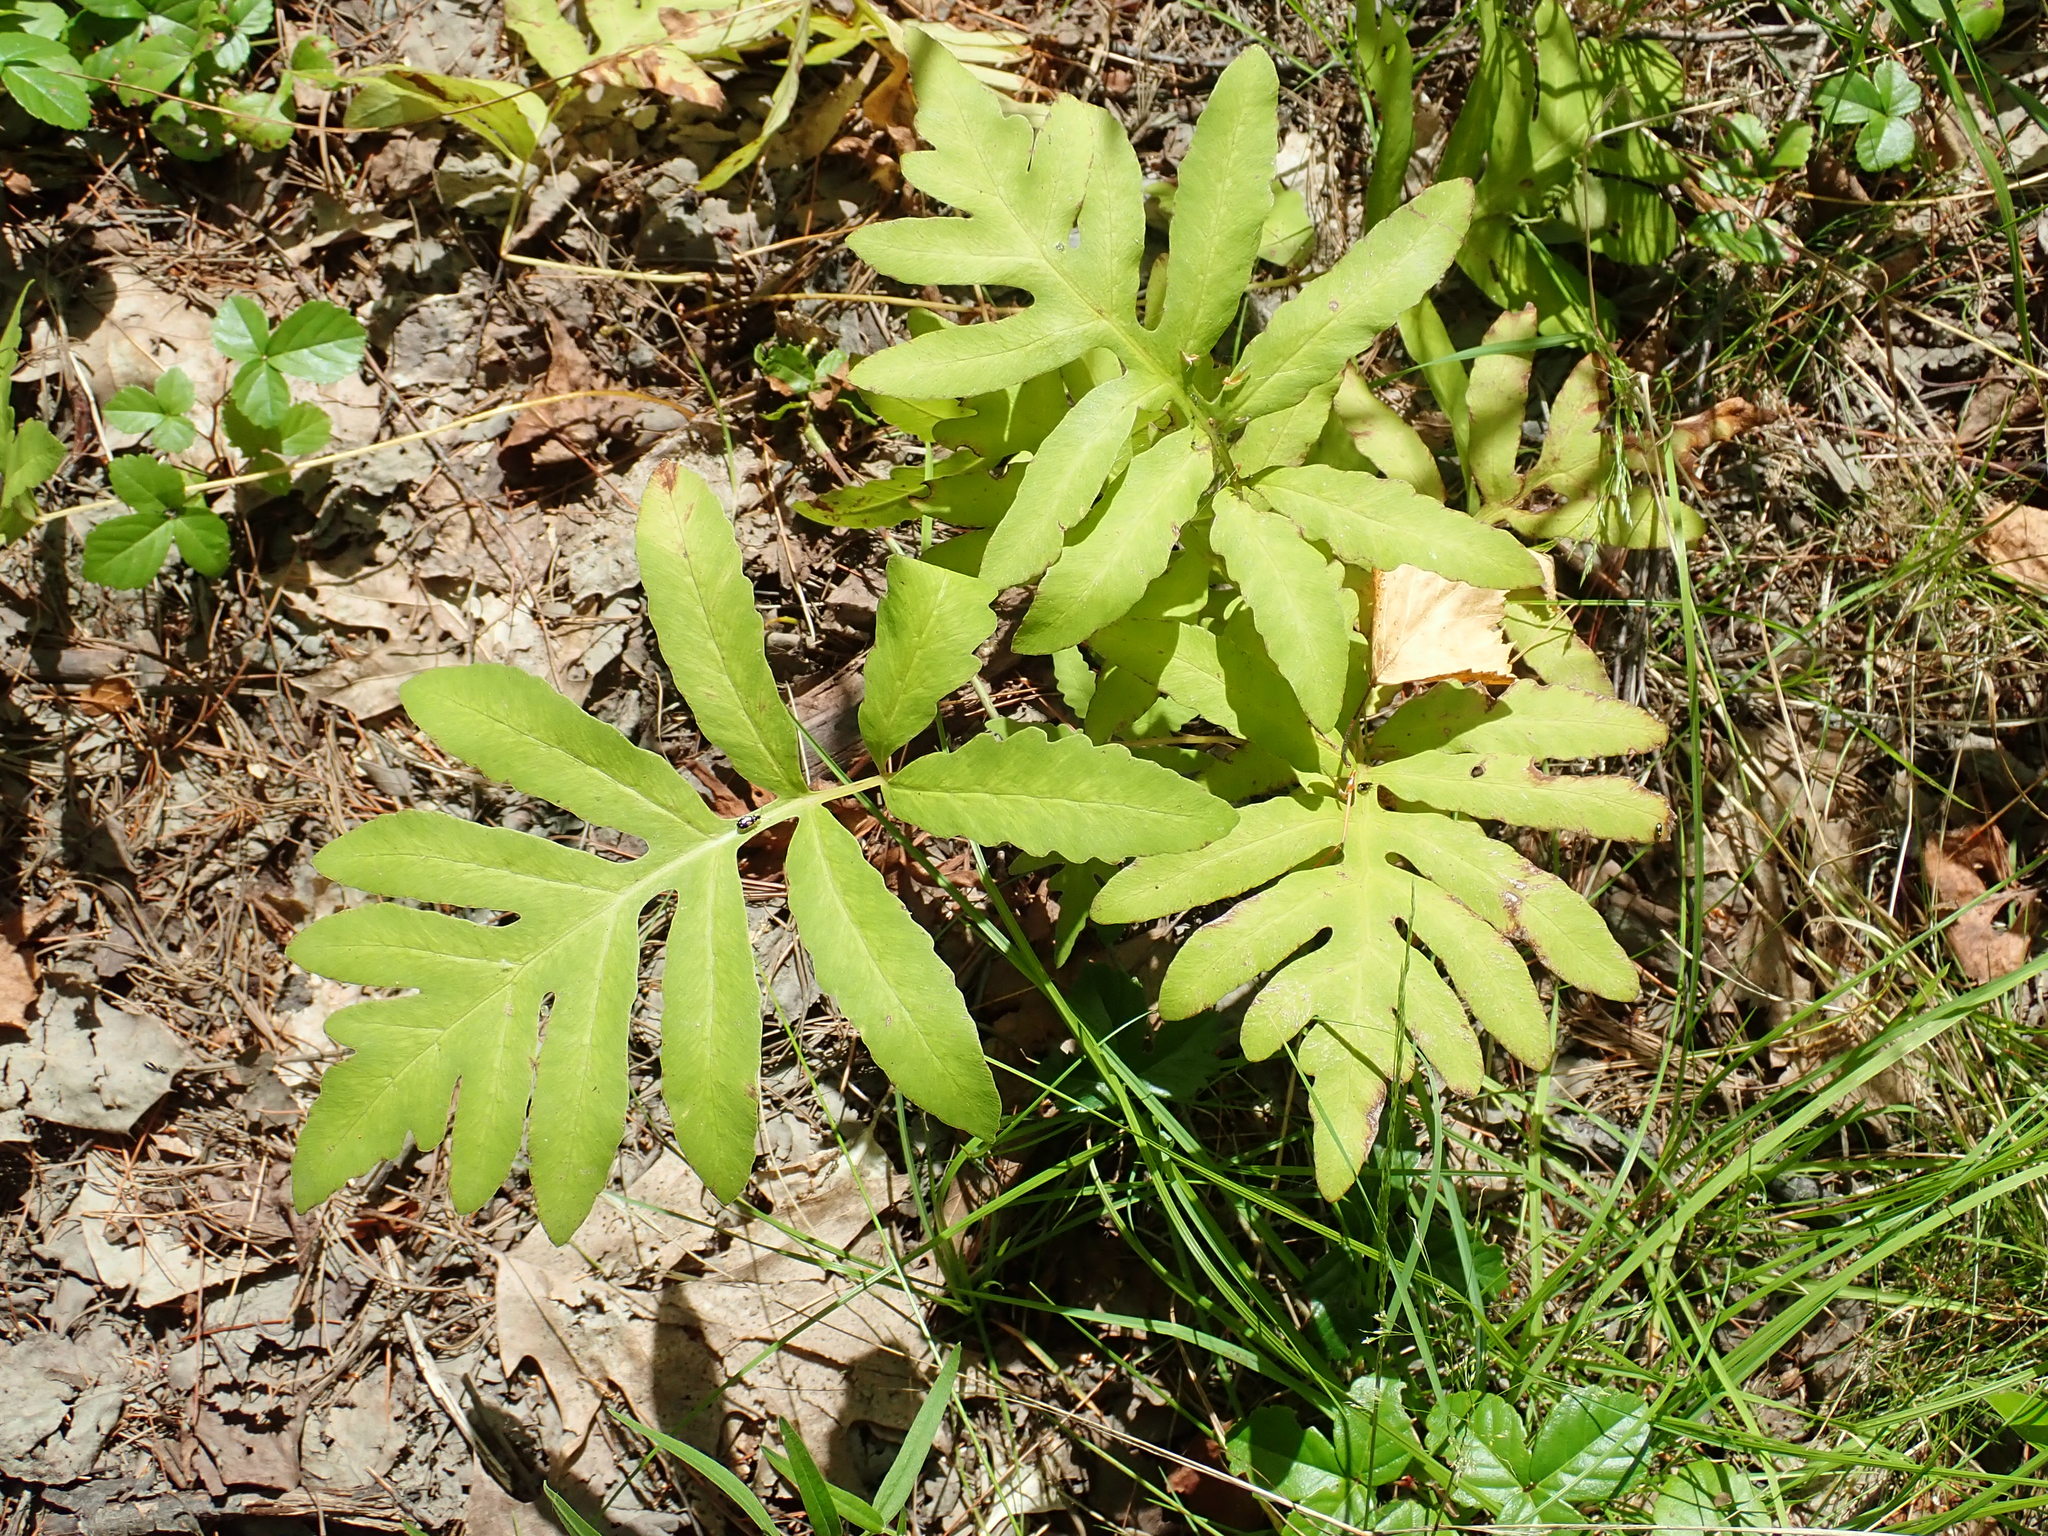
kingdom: Plantae
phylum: Tracheophyta
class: Polypodiopsida
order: Polypodiales
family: Onocleaceae
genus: Onoclea
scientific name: Onoclea sensibilis
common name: Sensitive fern
